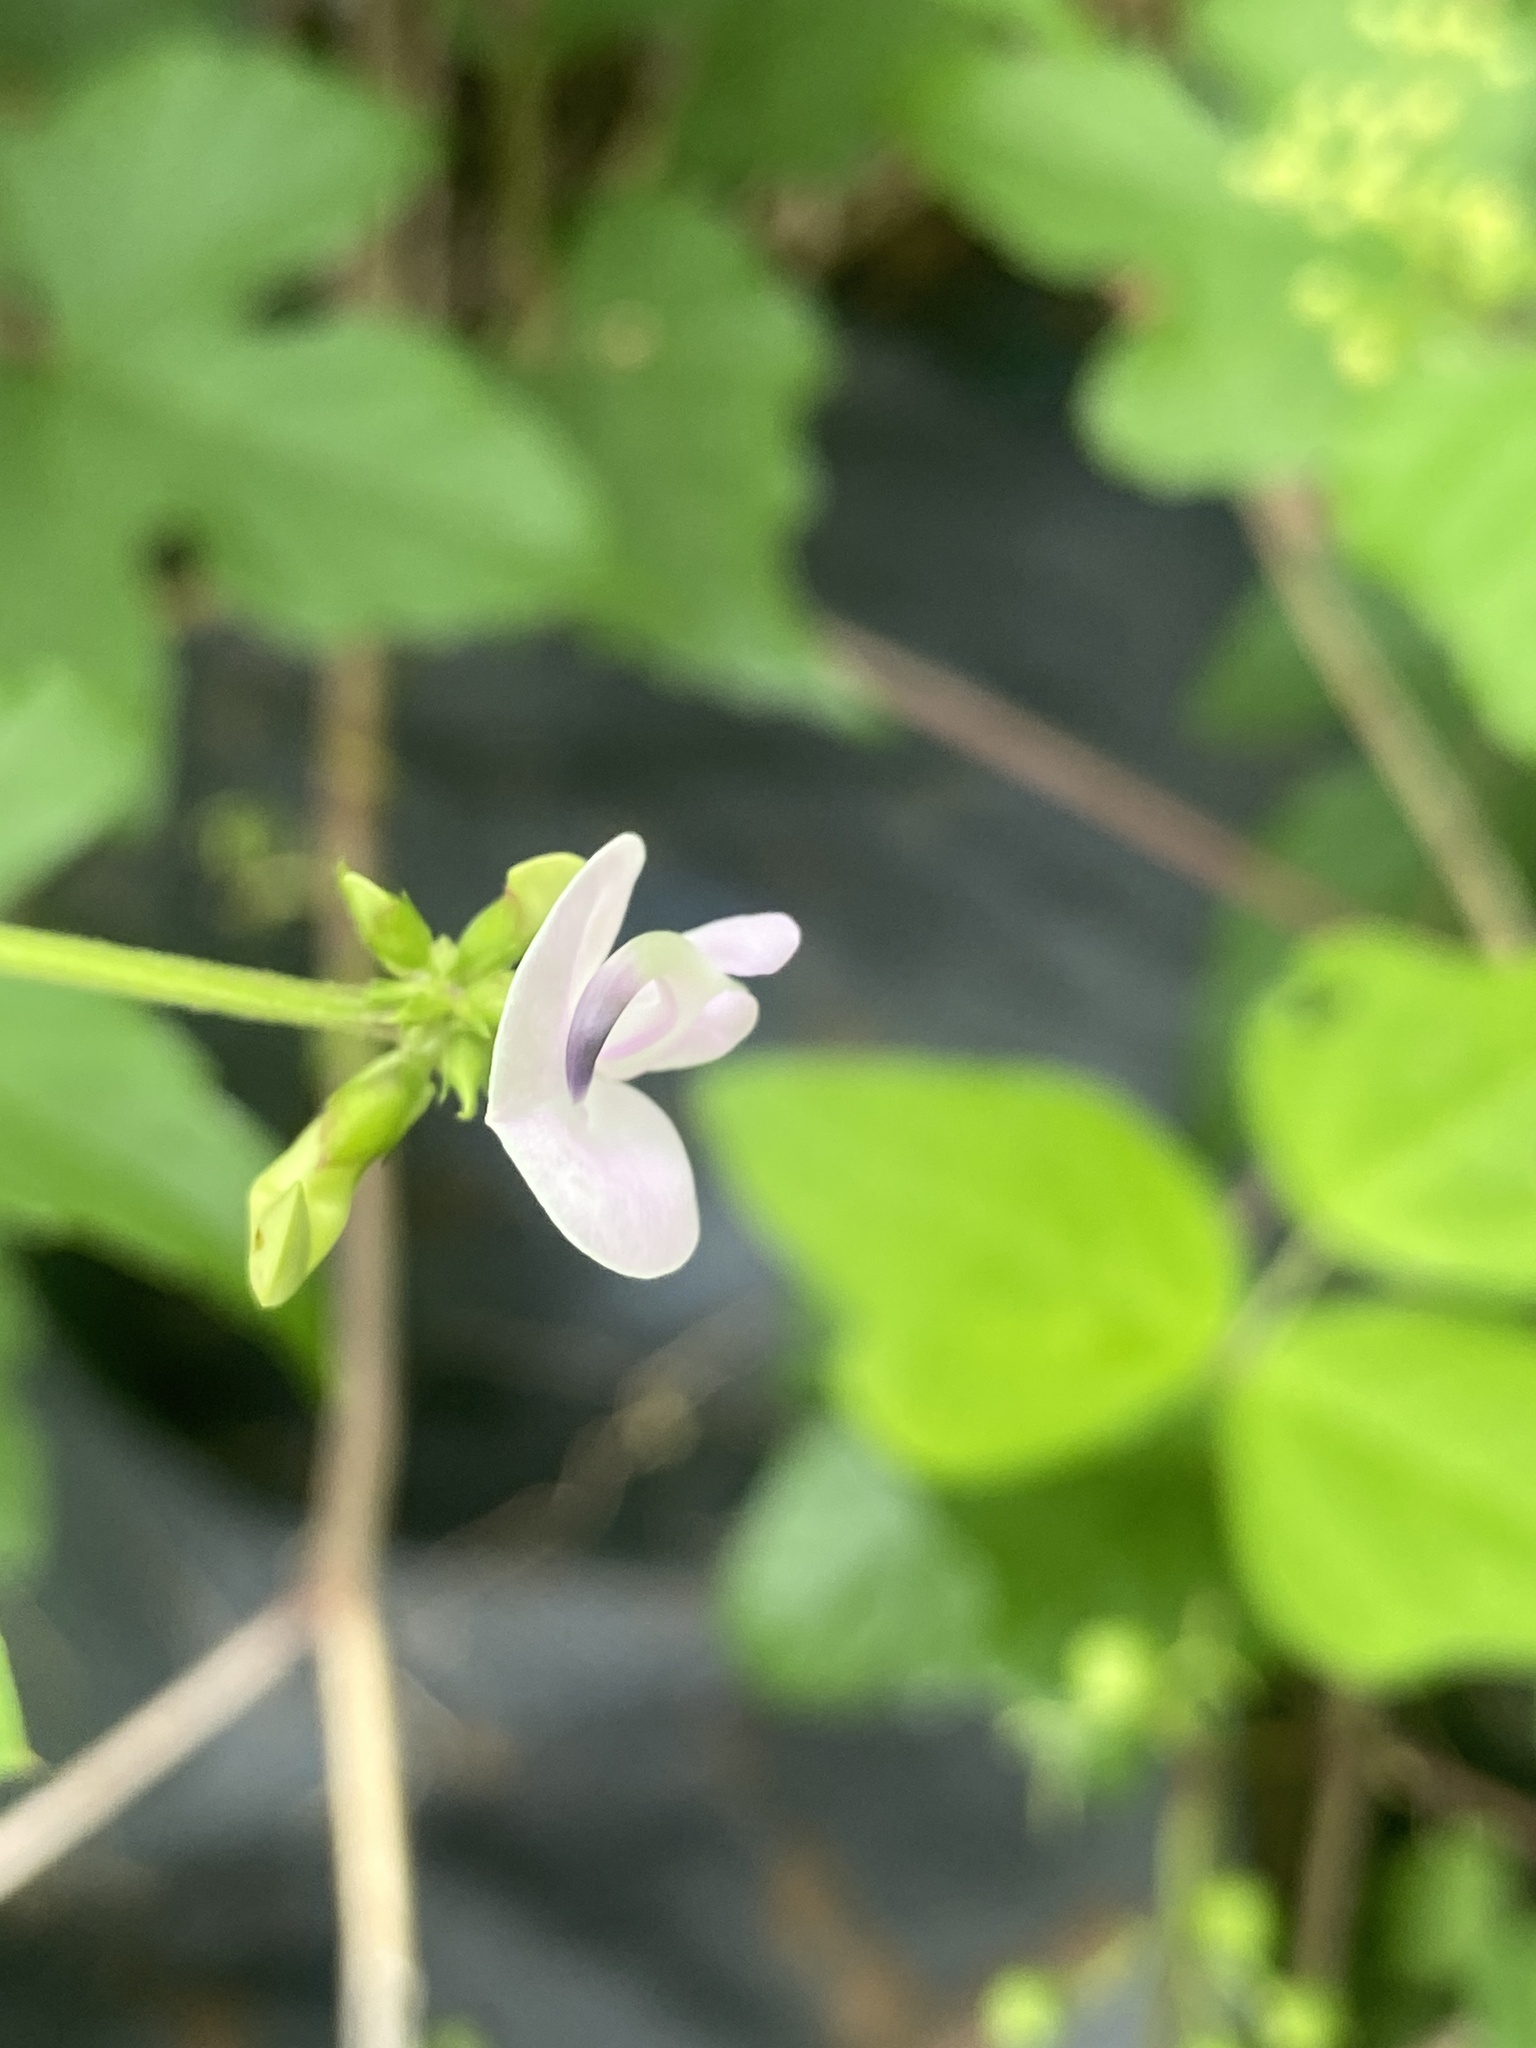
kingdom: Plantae
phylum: Tracheophyta
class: Magnoliopsida
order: Fabales
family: Fabaceae
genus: Strophostyles
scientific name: Strophostyles helvola
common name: Trailing wild bean
